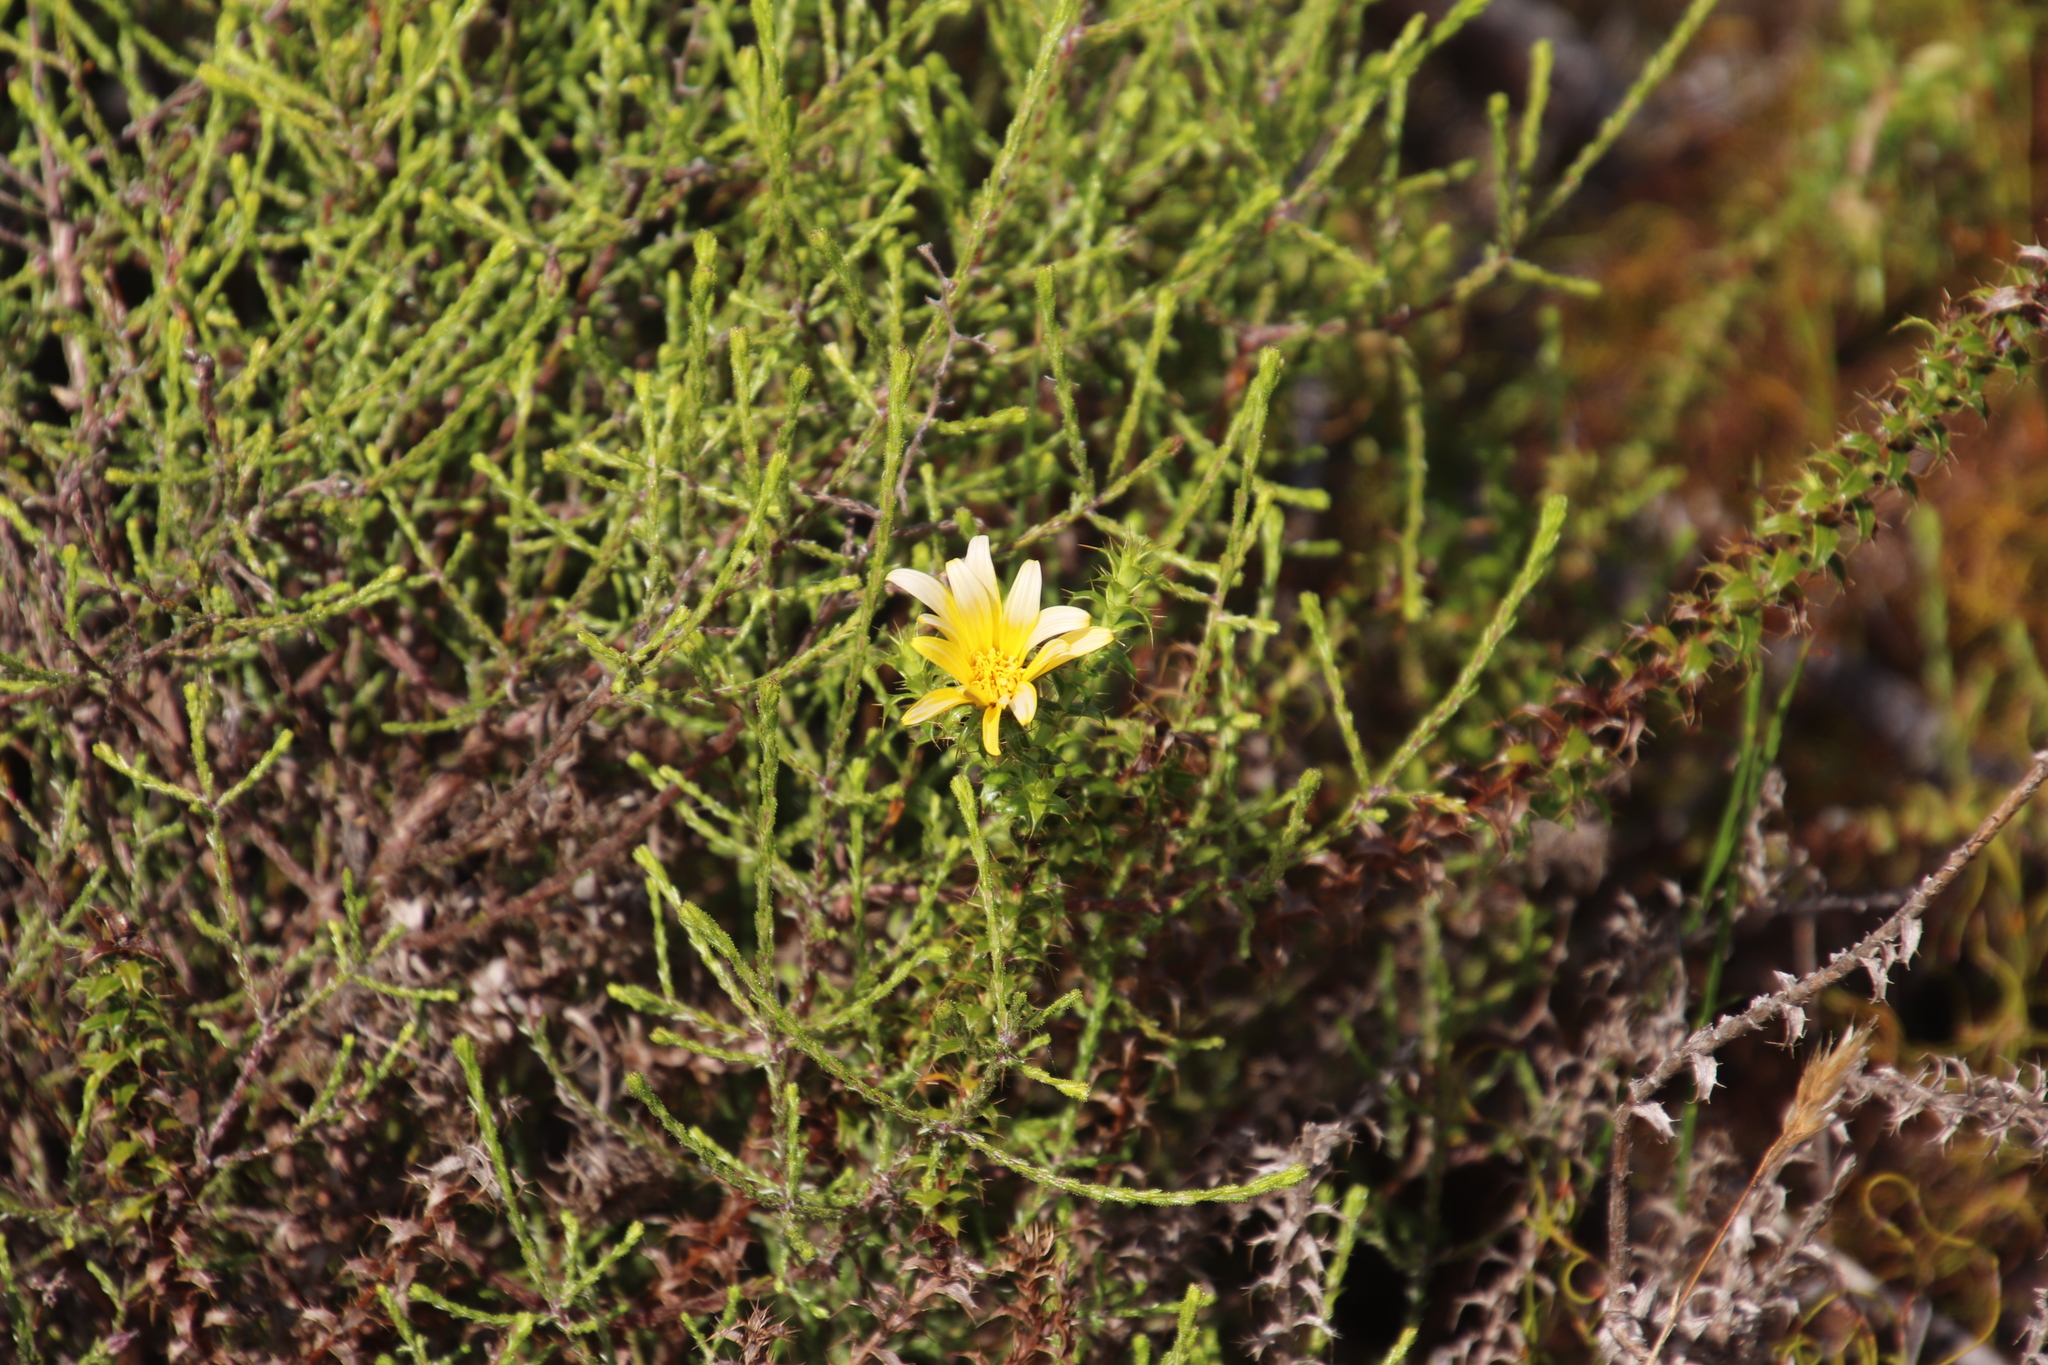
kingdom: Plantae
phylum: Tracheophyta
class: Magnoliopsida
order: Asterales
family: Asteraceae
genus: Cullumia
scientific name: Cullumia setosa
